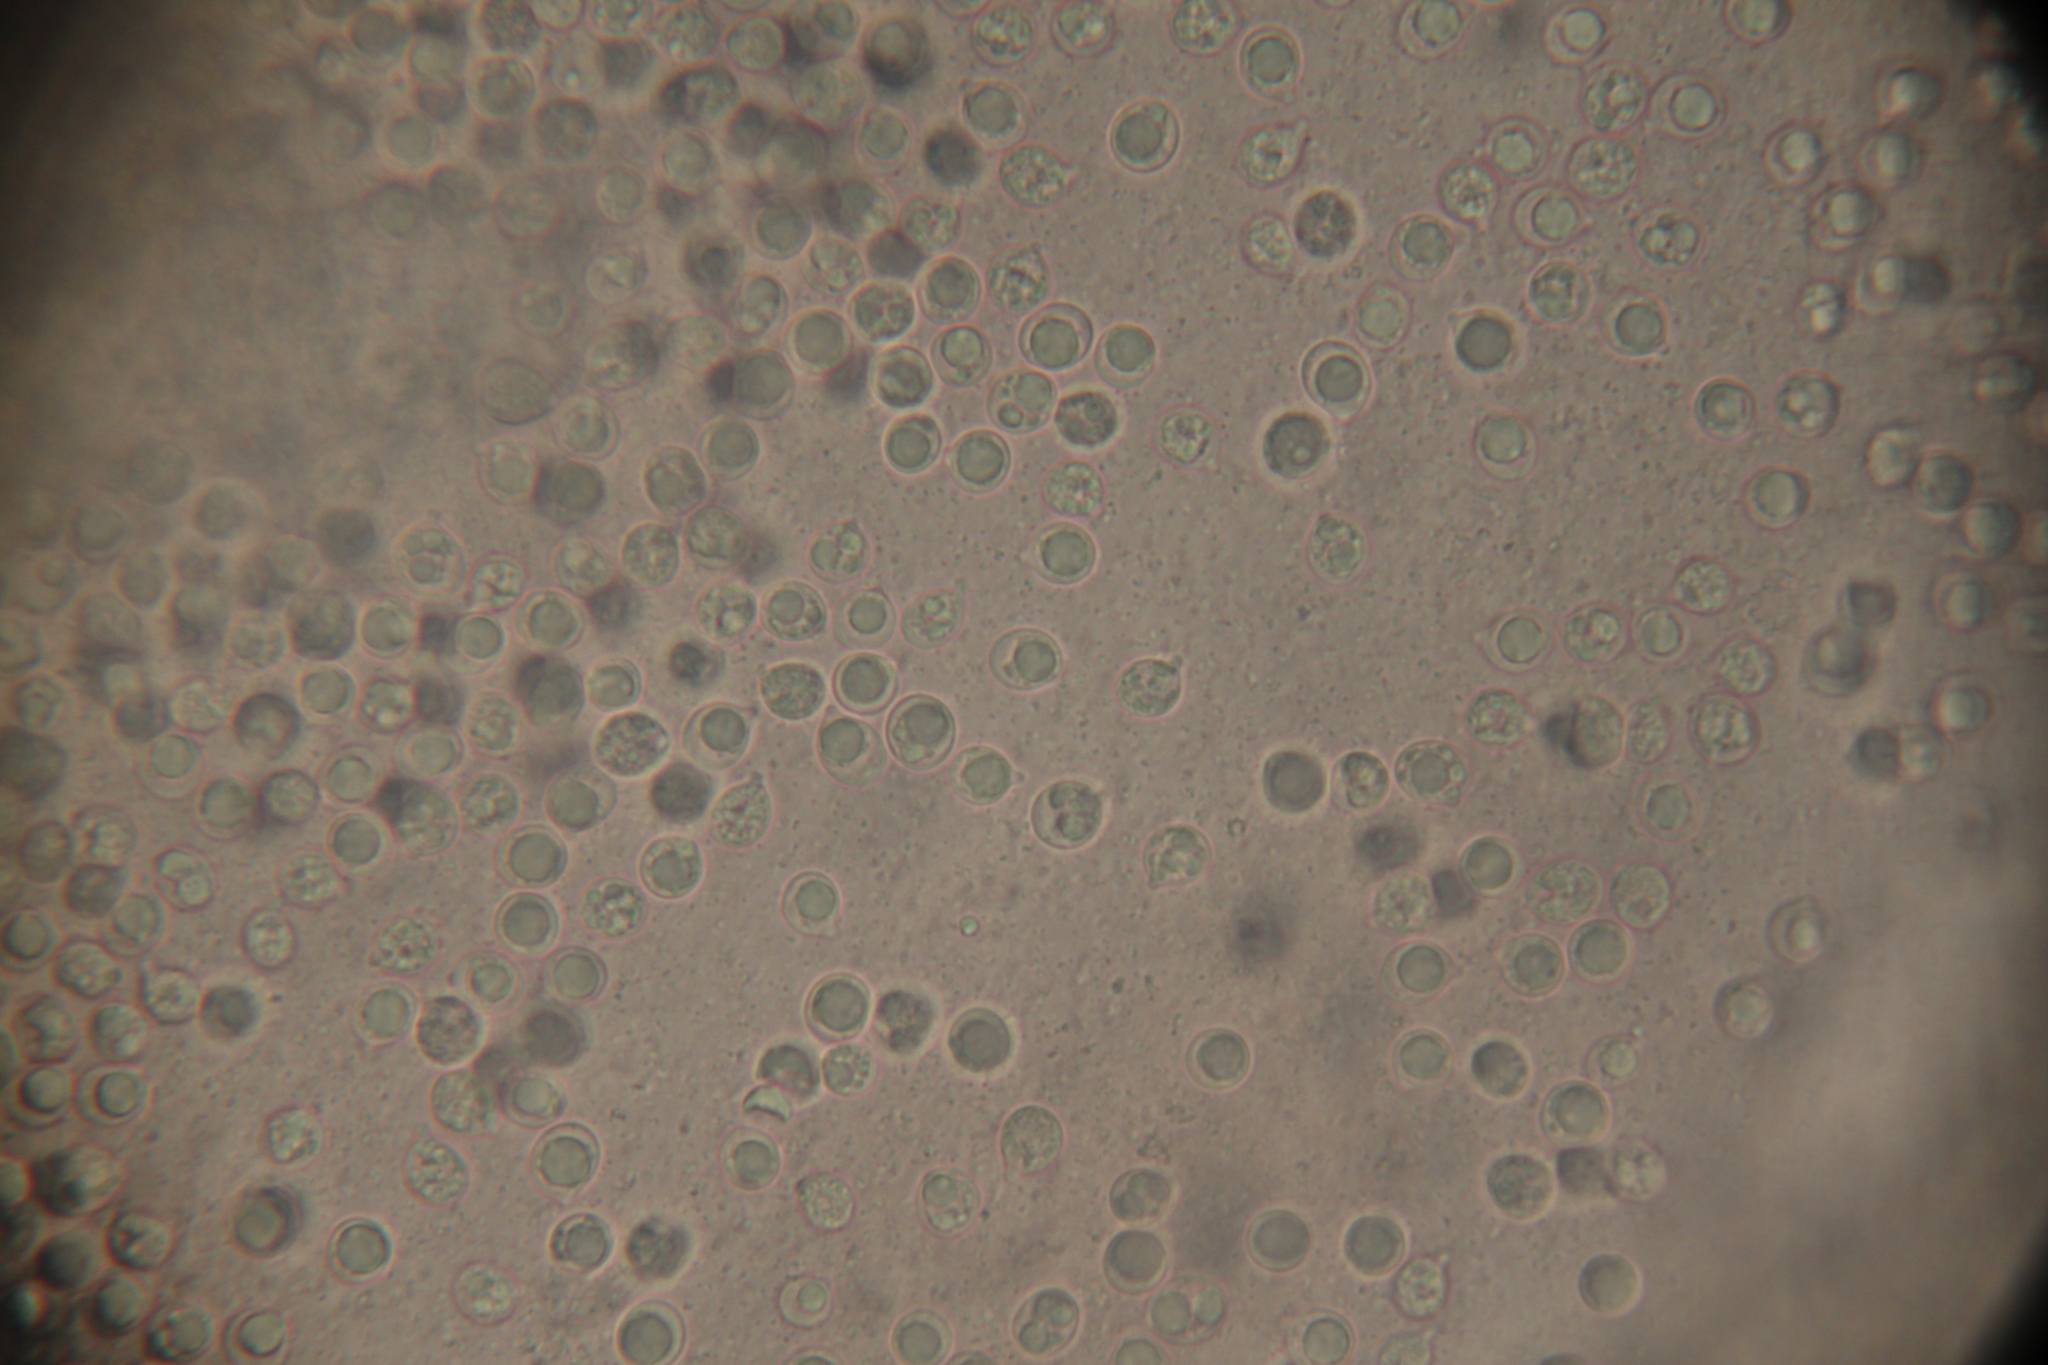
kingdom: Fungi
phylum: Basidiomycota
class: Agaricomycetes
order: Agaricales
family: Amanitaceae
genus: Amanita
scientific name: Amanita porphyria
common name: Grey veiled amanita
